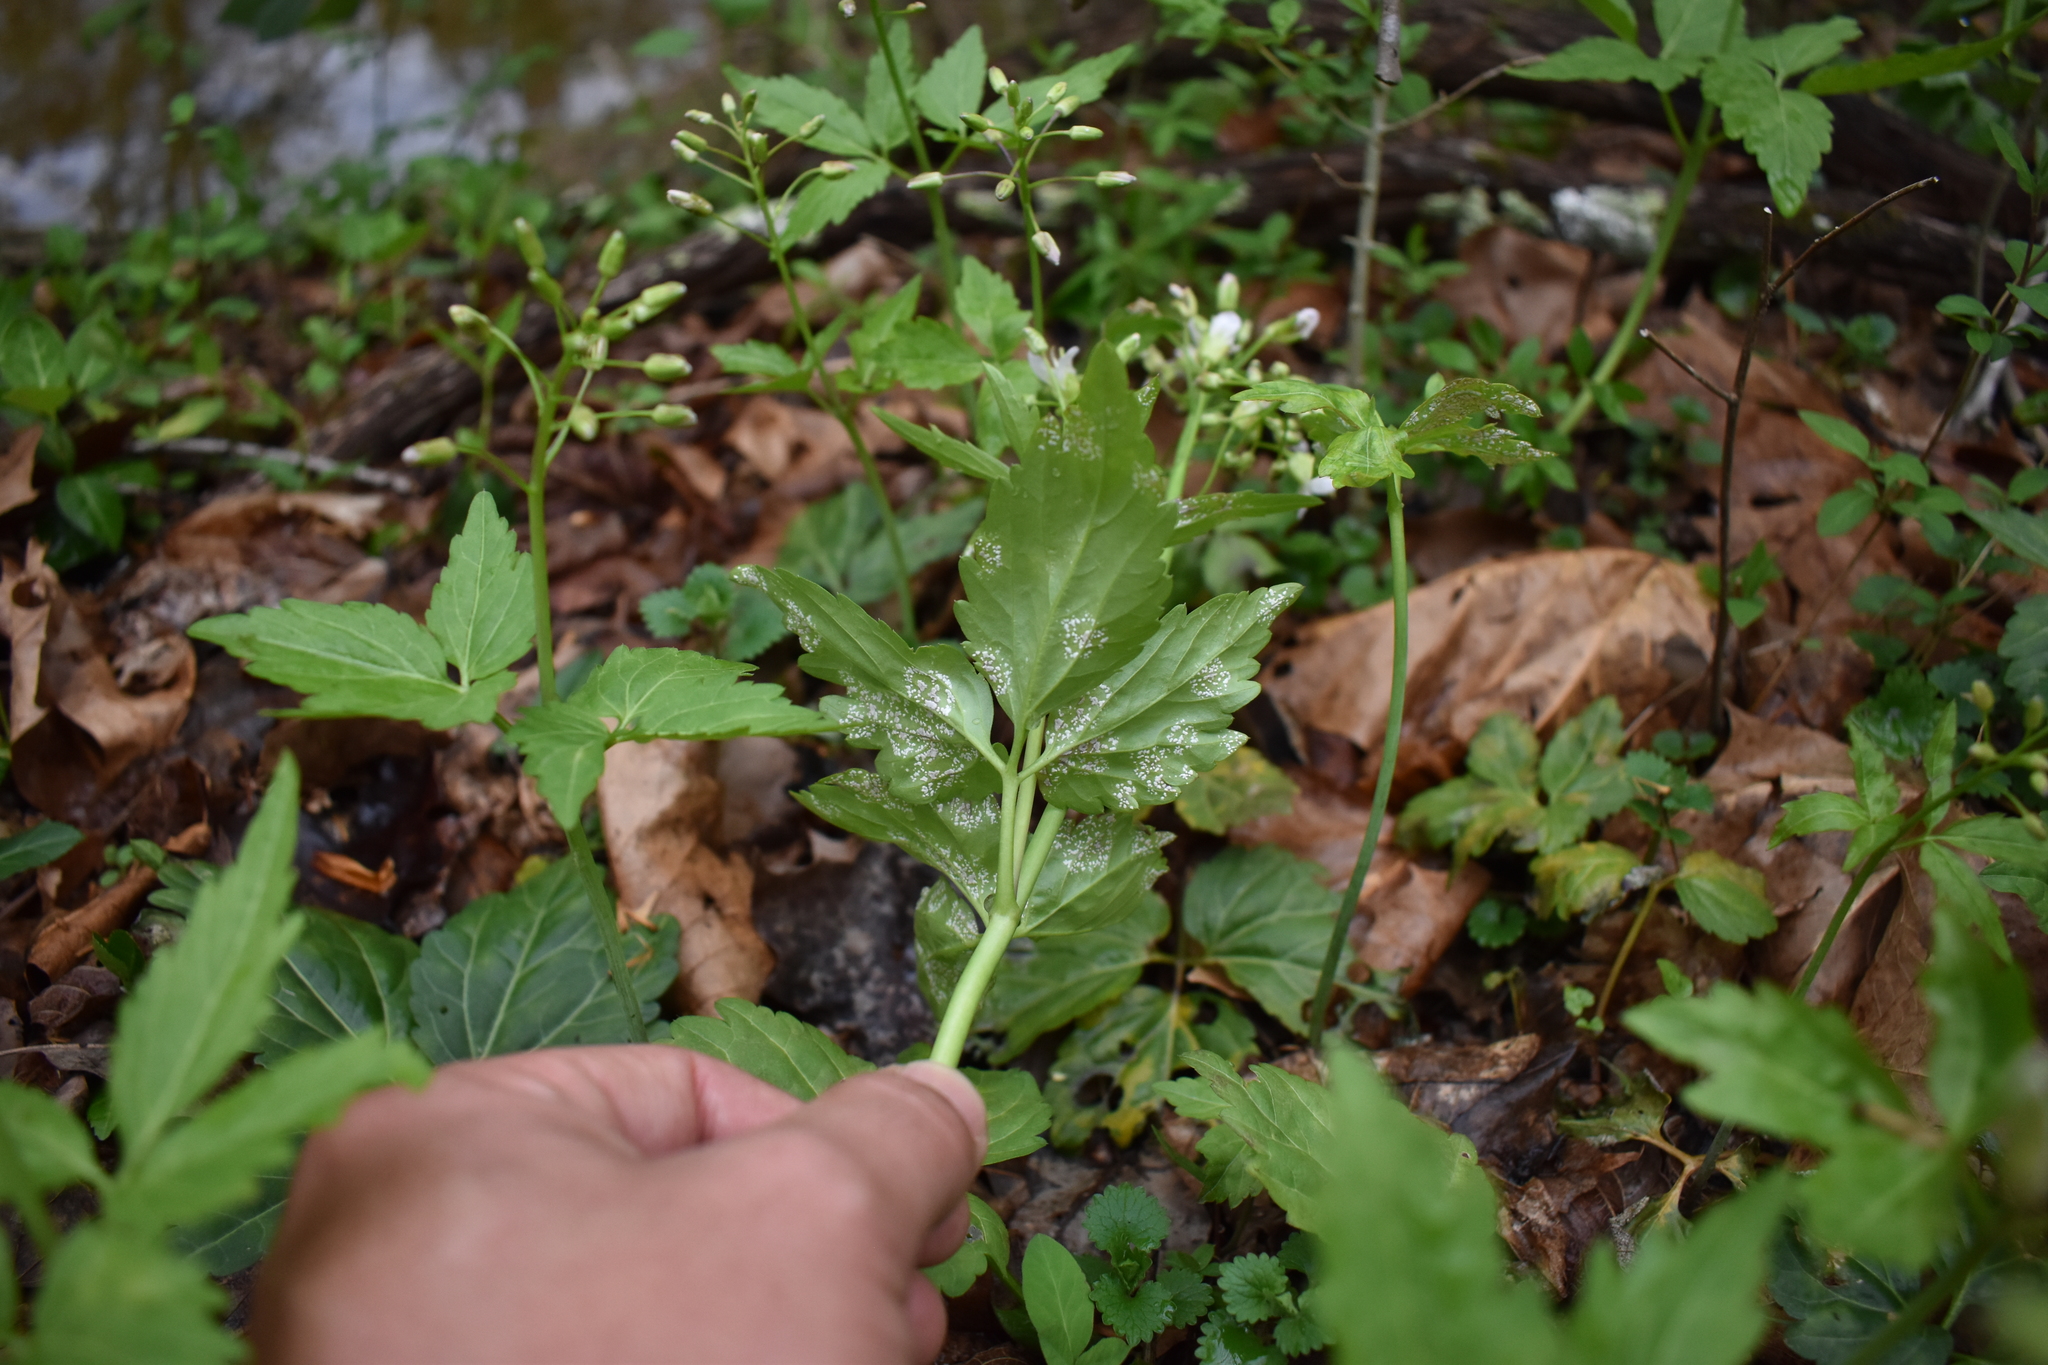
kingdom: Plantae
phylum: Tracheophyta
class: Magnoliopsida
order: Brassicales
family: Brassicaceae
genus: Cardamine
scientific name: Cardamine diphylla
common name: Broad-leaved toothwort
